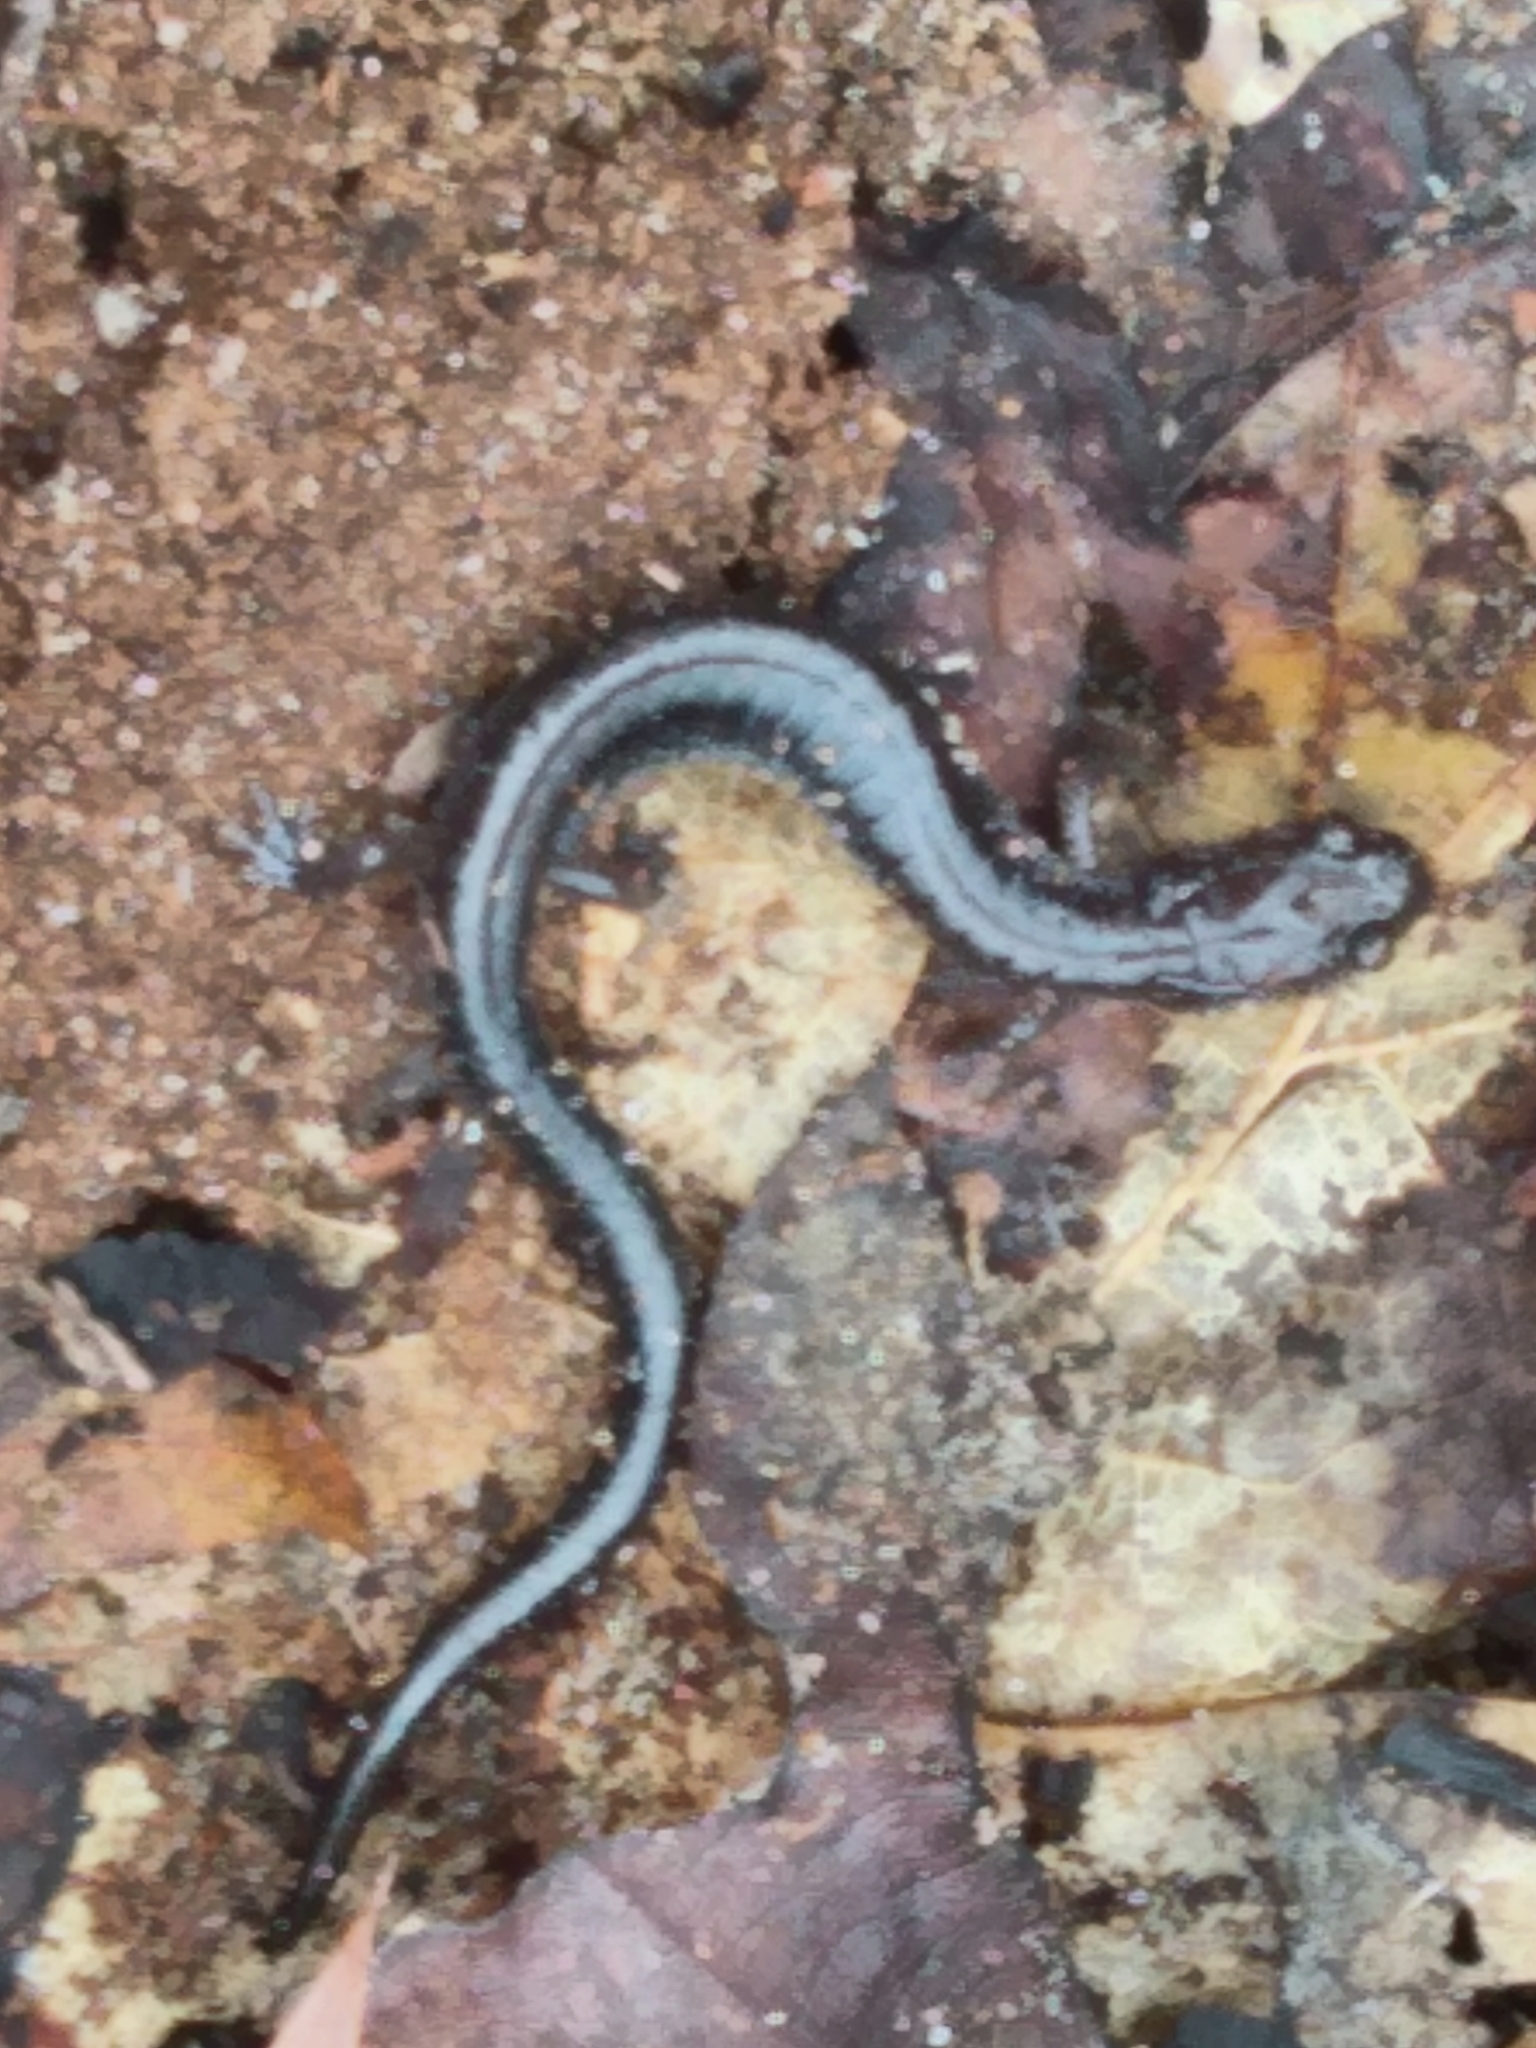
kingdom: Animalia
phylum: Chordata
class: Amphibia
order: Caudata
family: Plethodontidae
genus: Plethodon
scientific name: Plethodon cinereus
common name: Redback salamander
